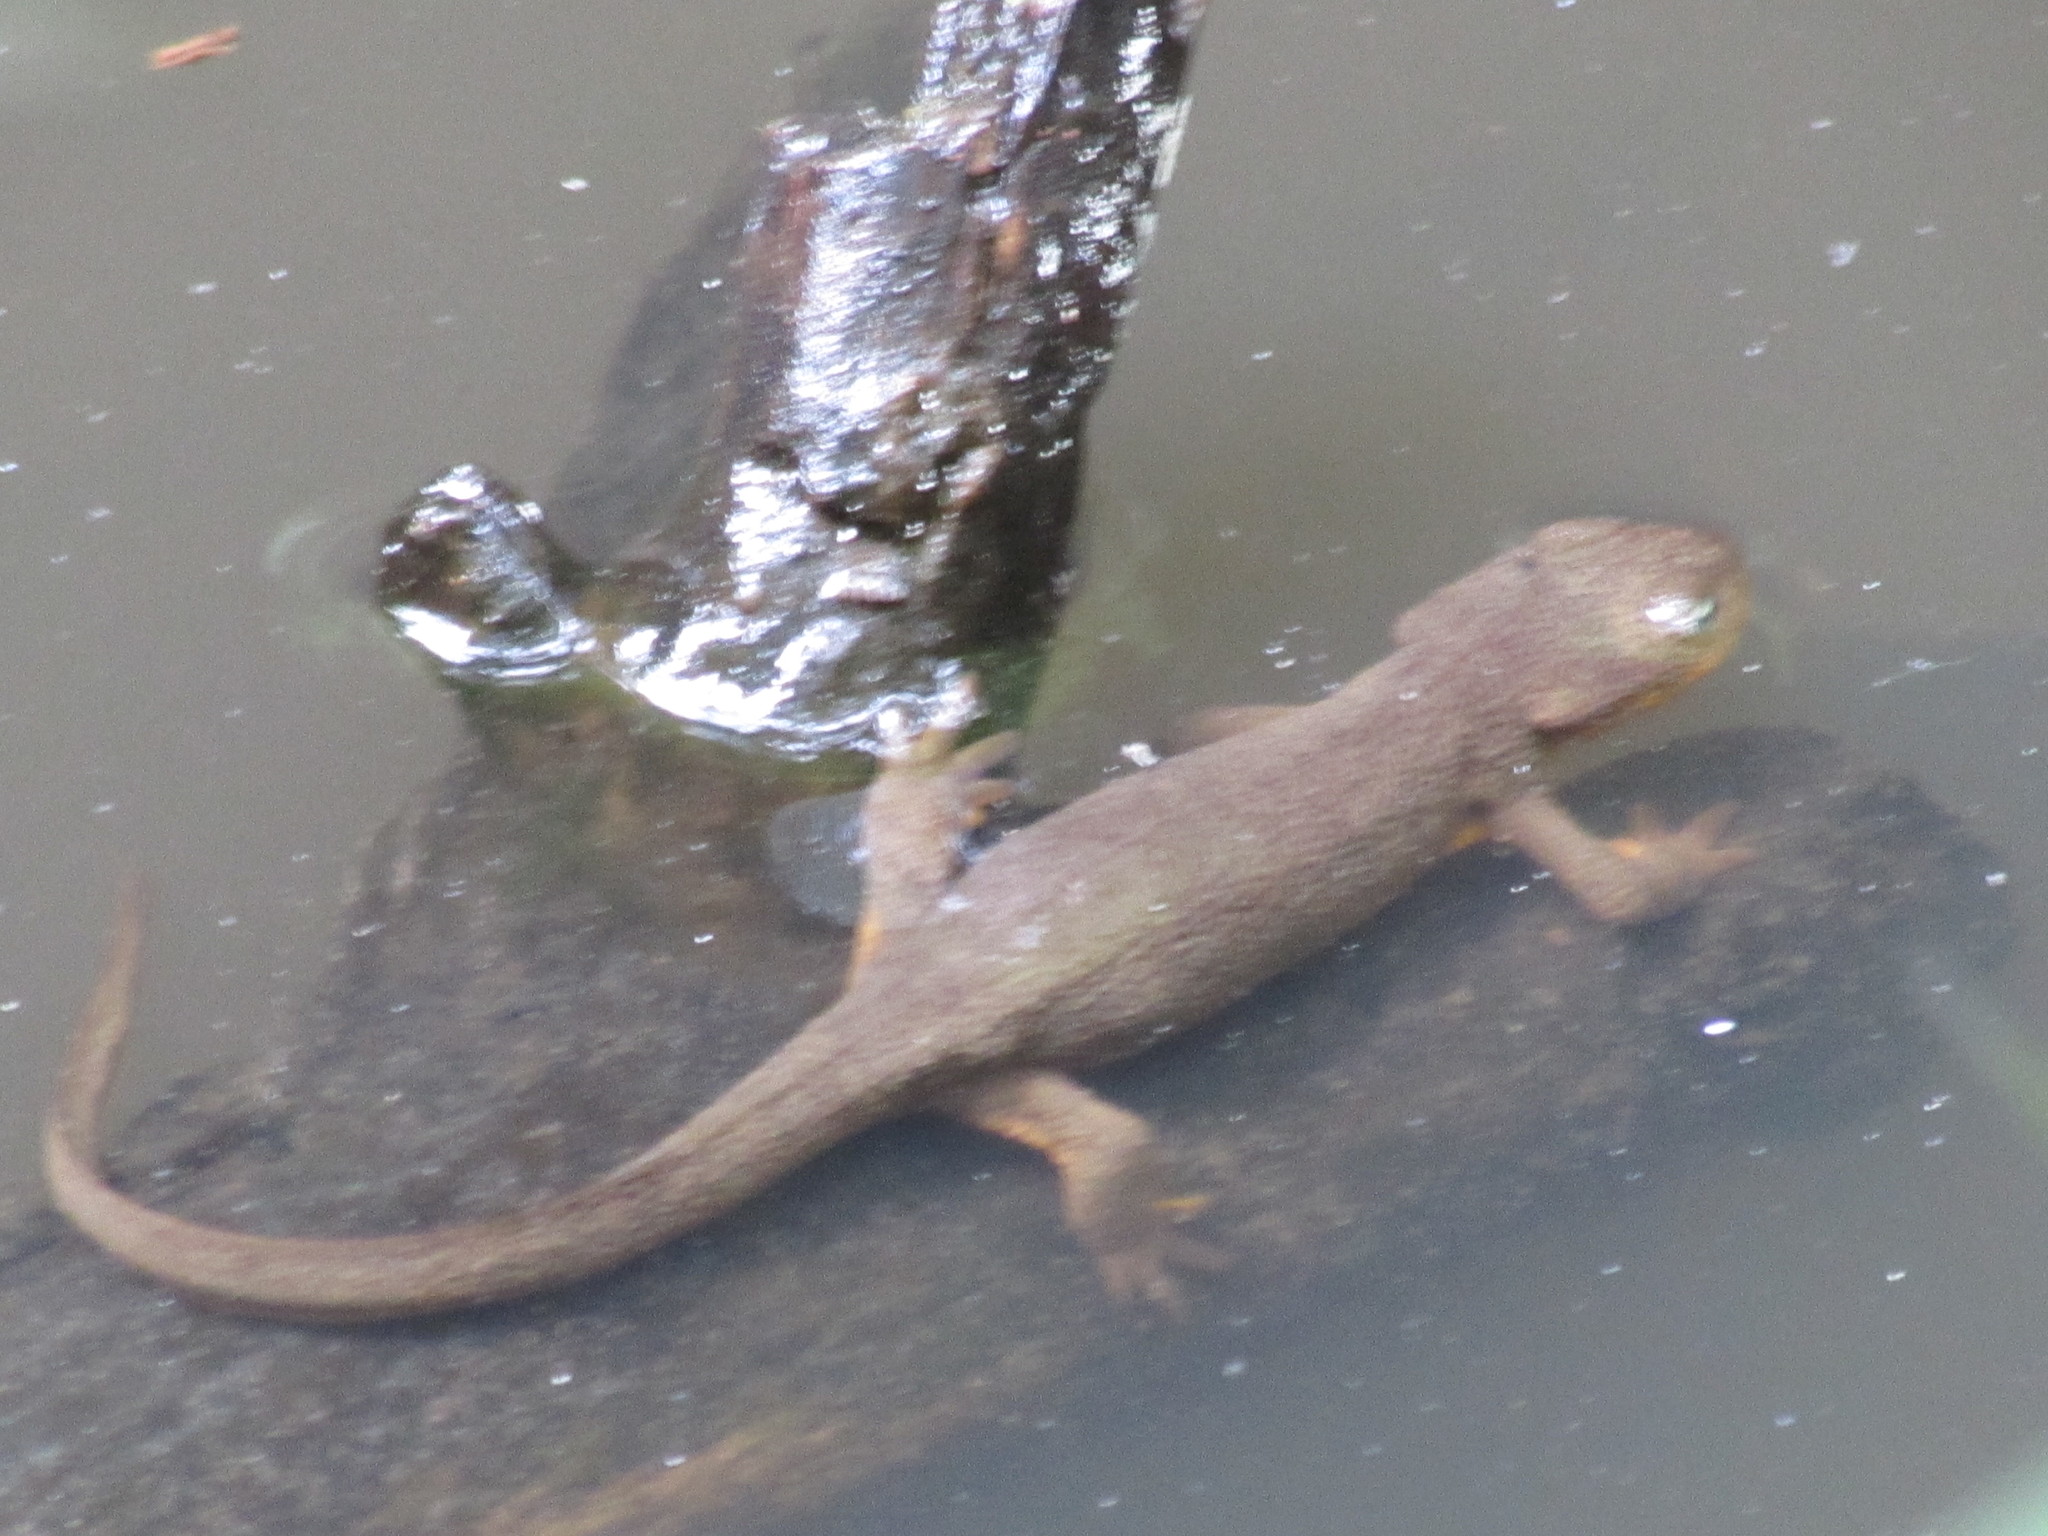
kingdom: Animalia
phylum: Chordata
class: Amphibia
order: Caudata
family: Salamandridae
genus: Taricha
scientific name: Taricha granulosa
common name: Roughskin newt
